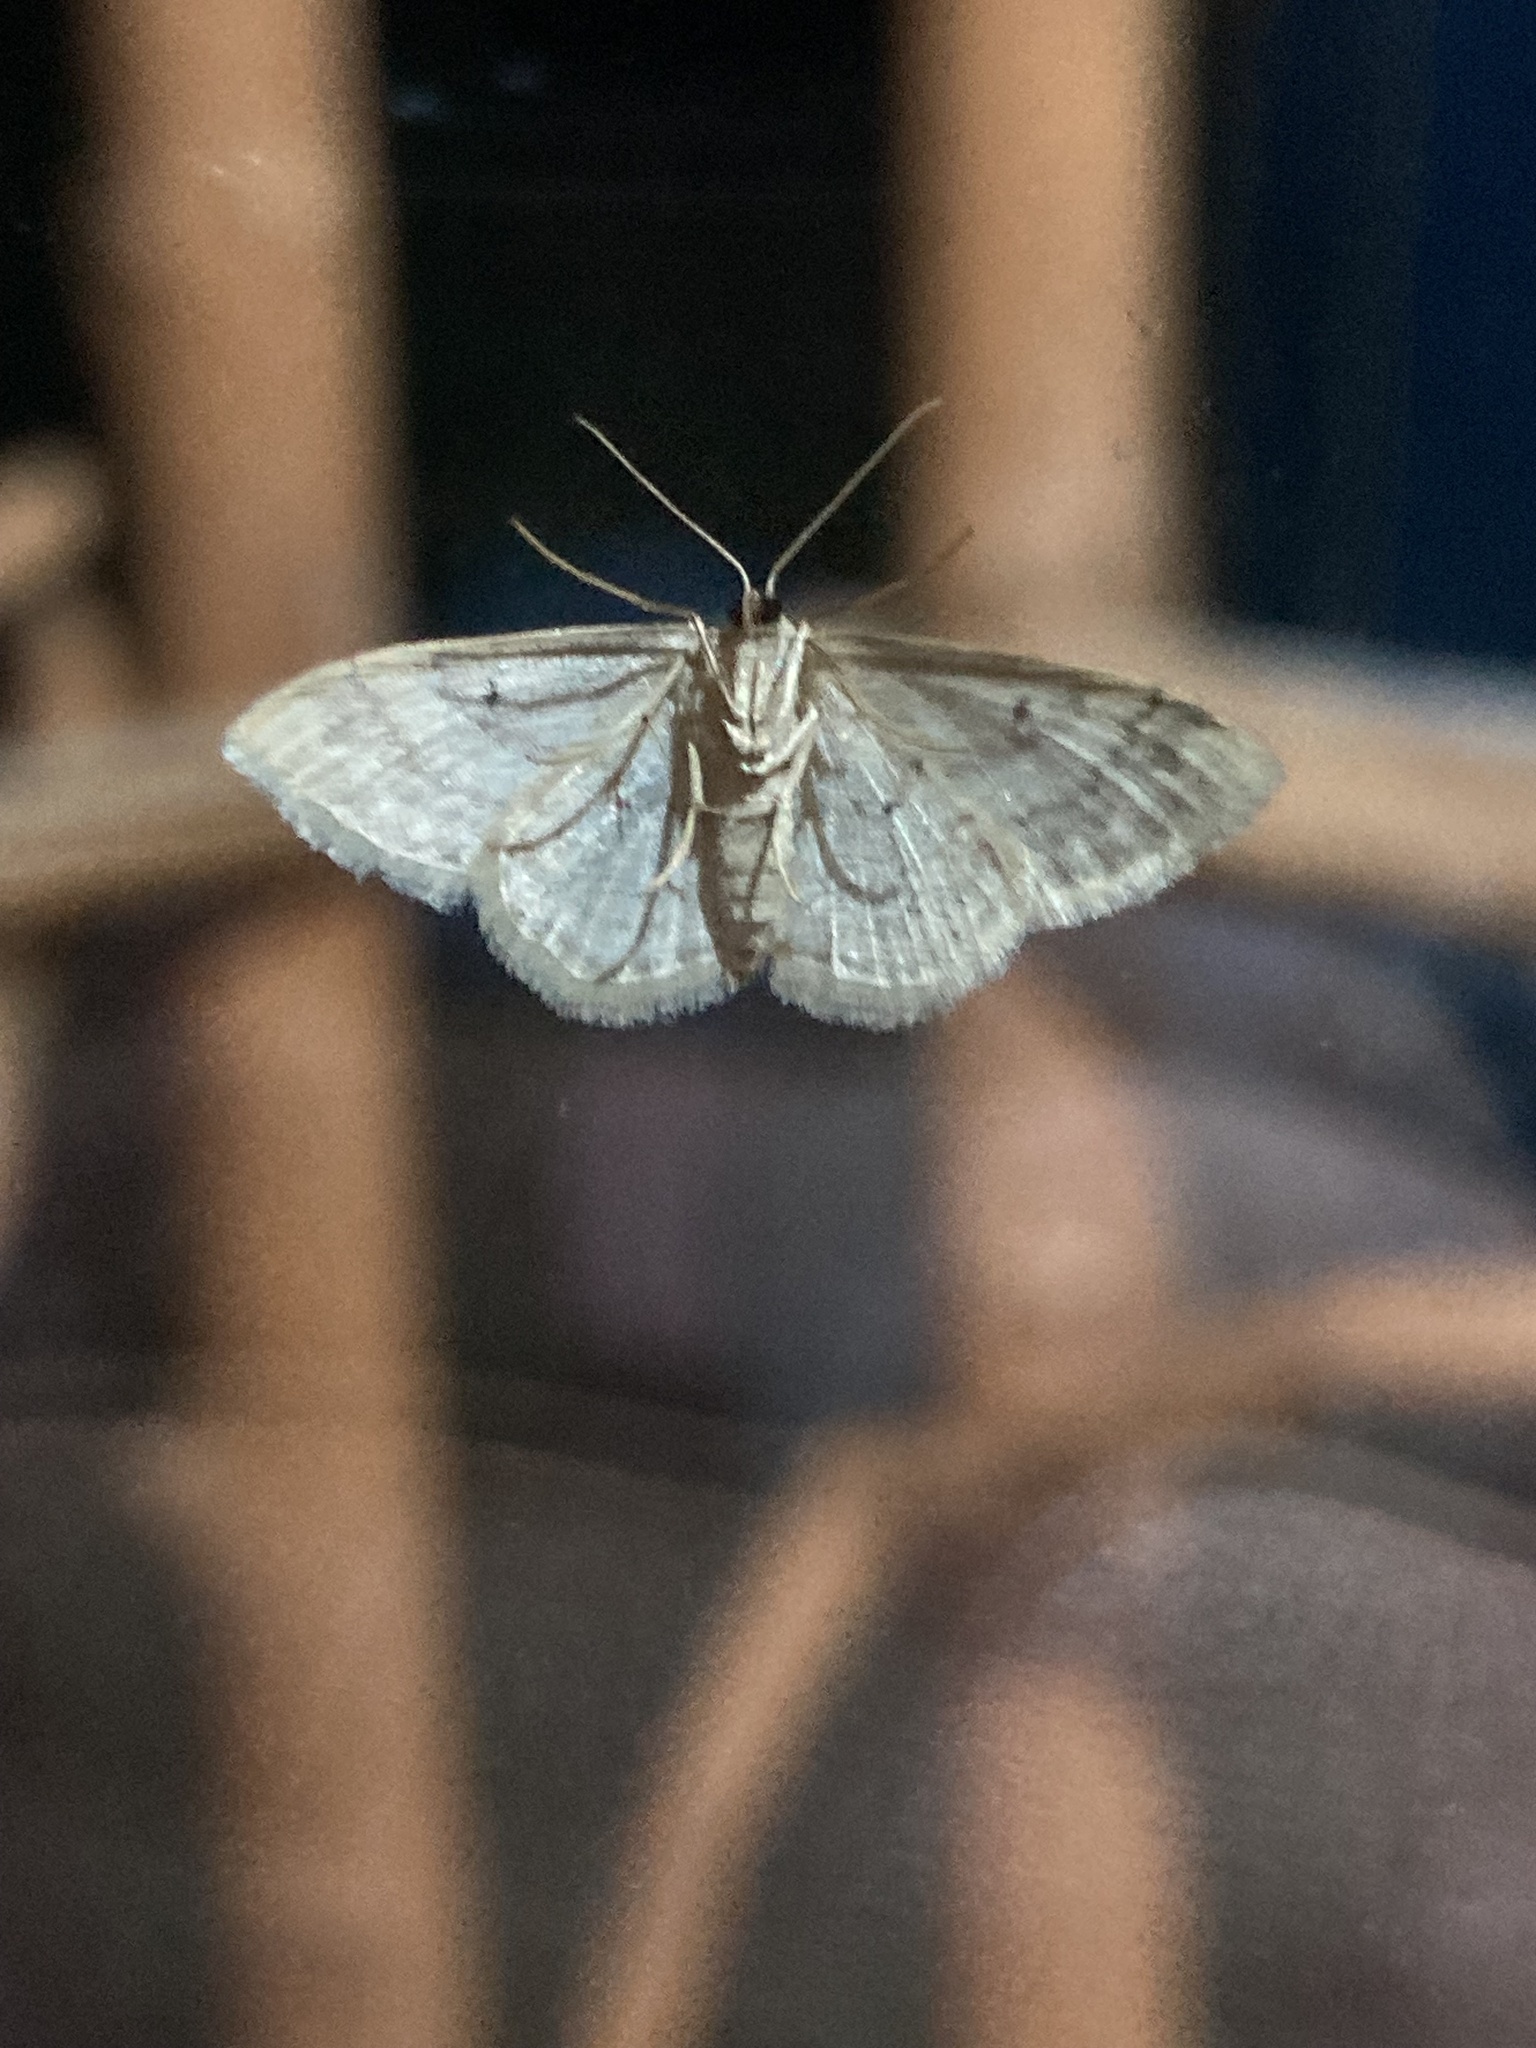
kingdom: Animalia
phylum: Arthropoda
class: Insecta
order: Lepidoptera
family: Geometridae
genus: Idaea
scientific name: Idaea biselata
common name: Small fan-footed wave
